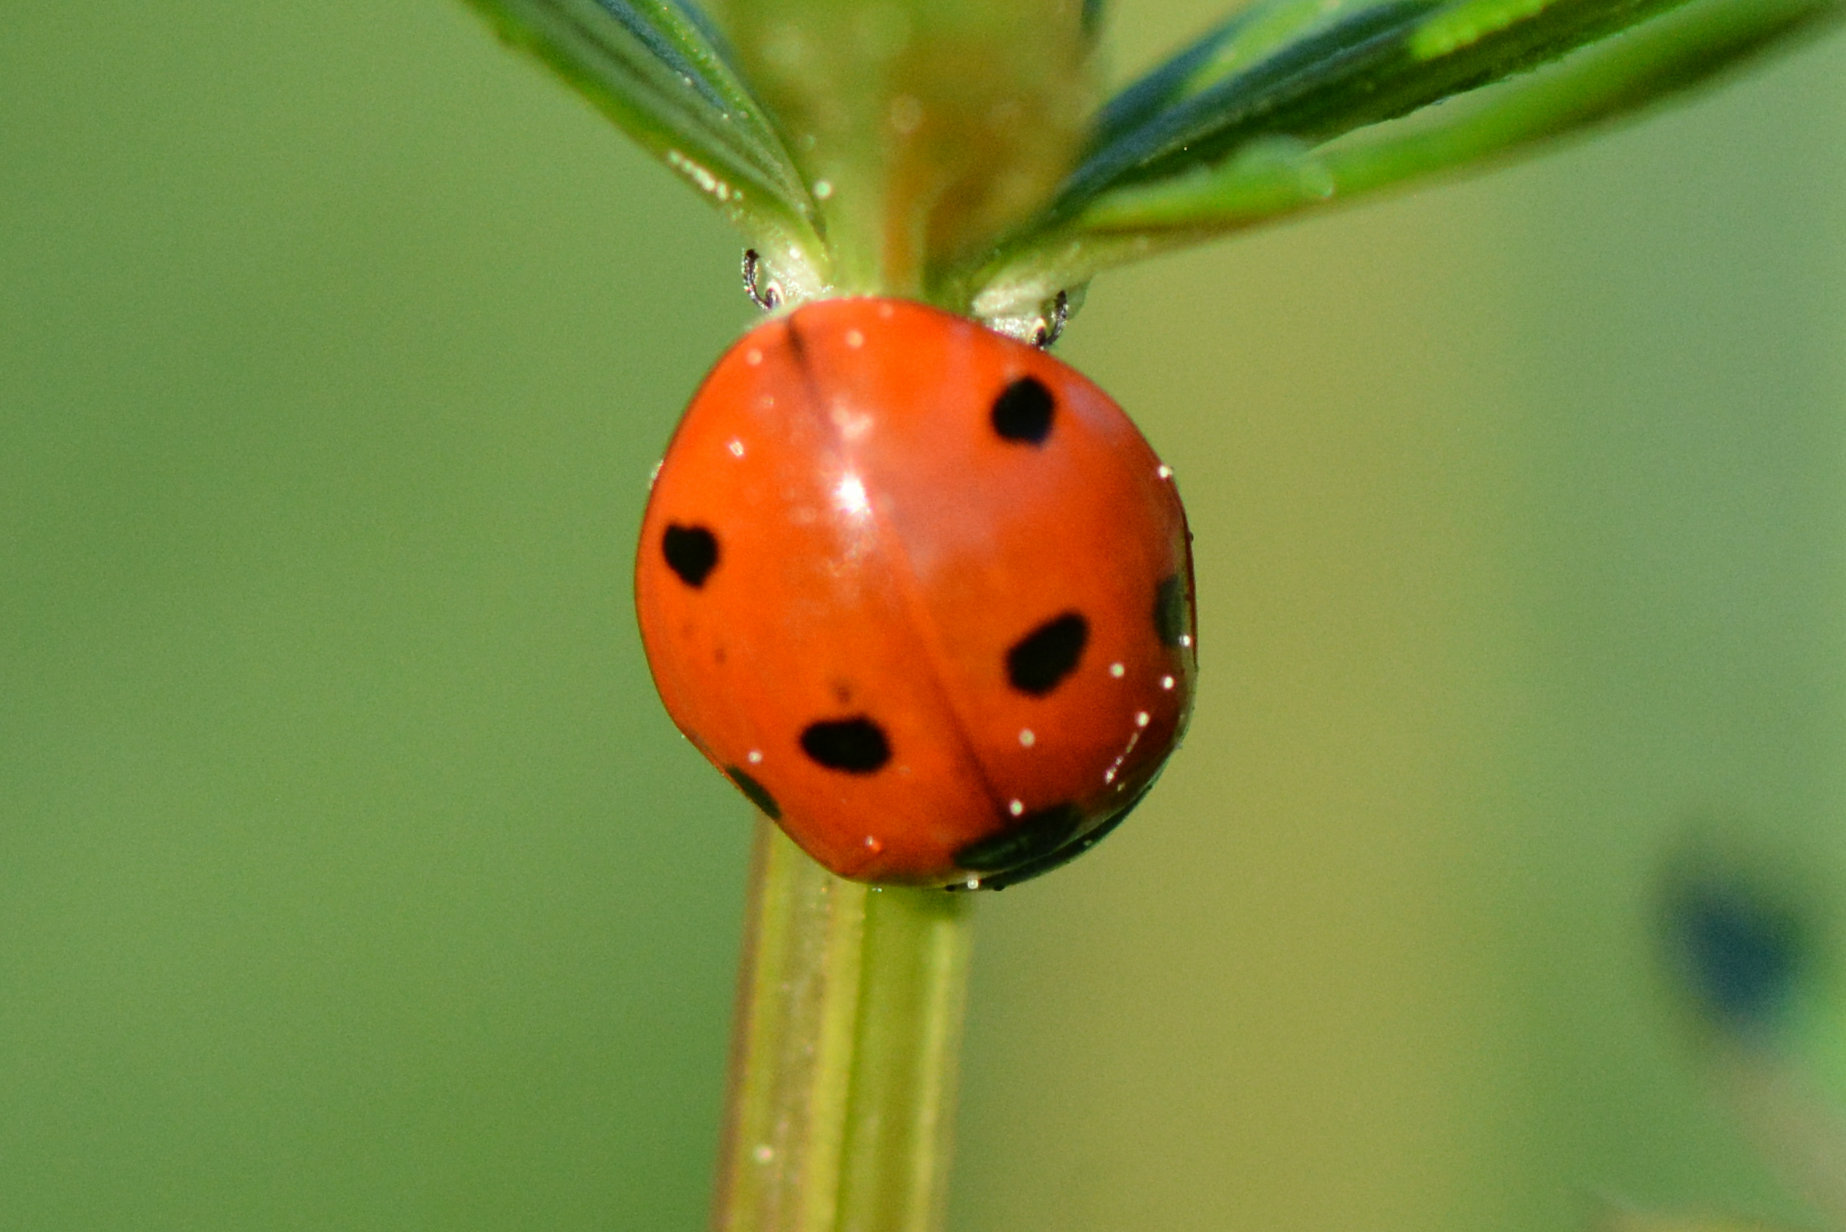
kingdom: Animalia
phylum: Arthropoda
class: Insecta
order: Coleoptera
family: Coccinellidae
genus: Coccinella
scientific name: Coccinella septempunctata
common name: Sevenspotted lady beetle
